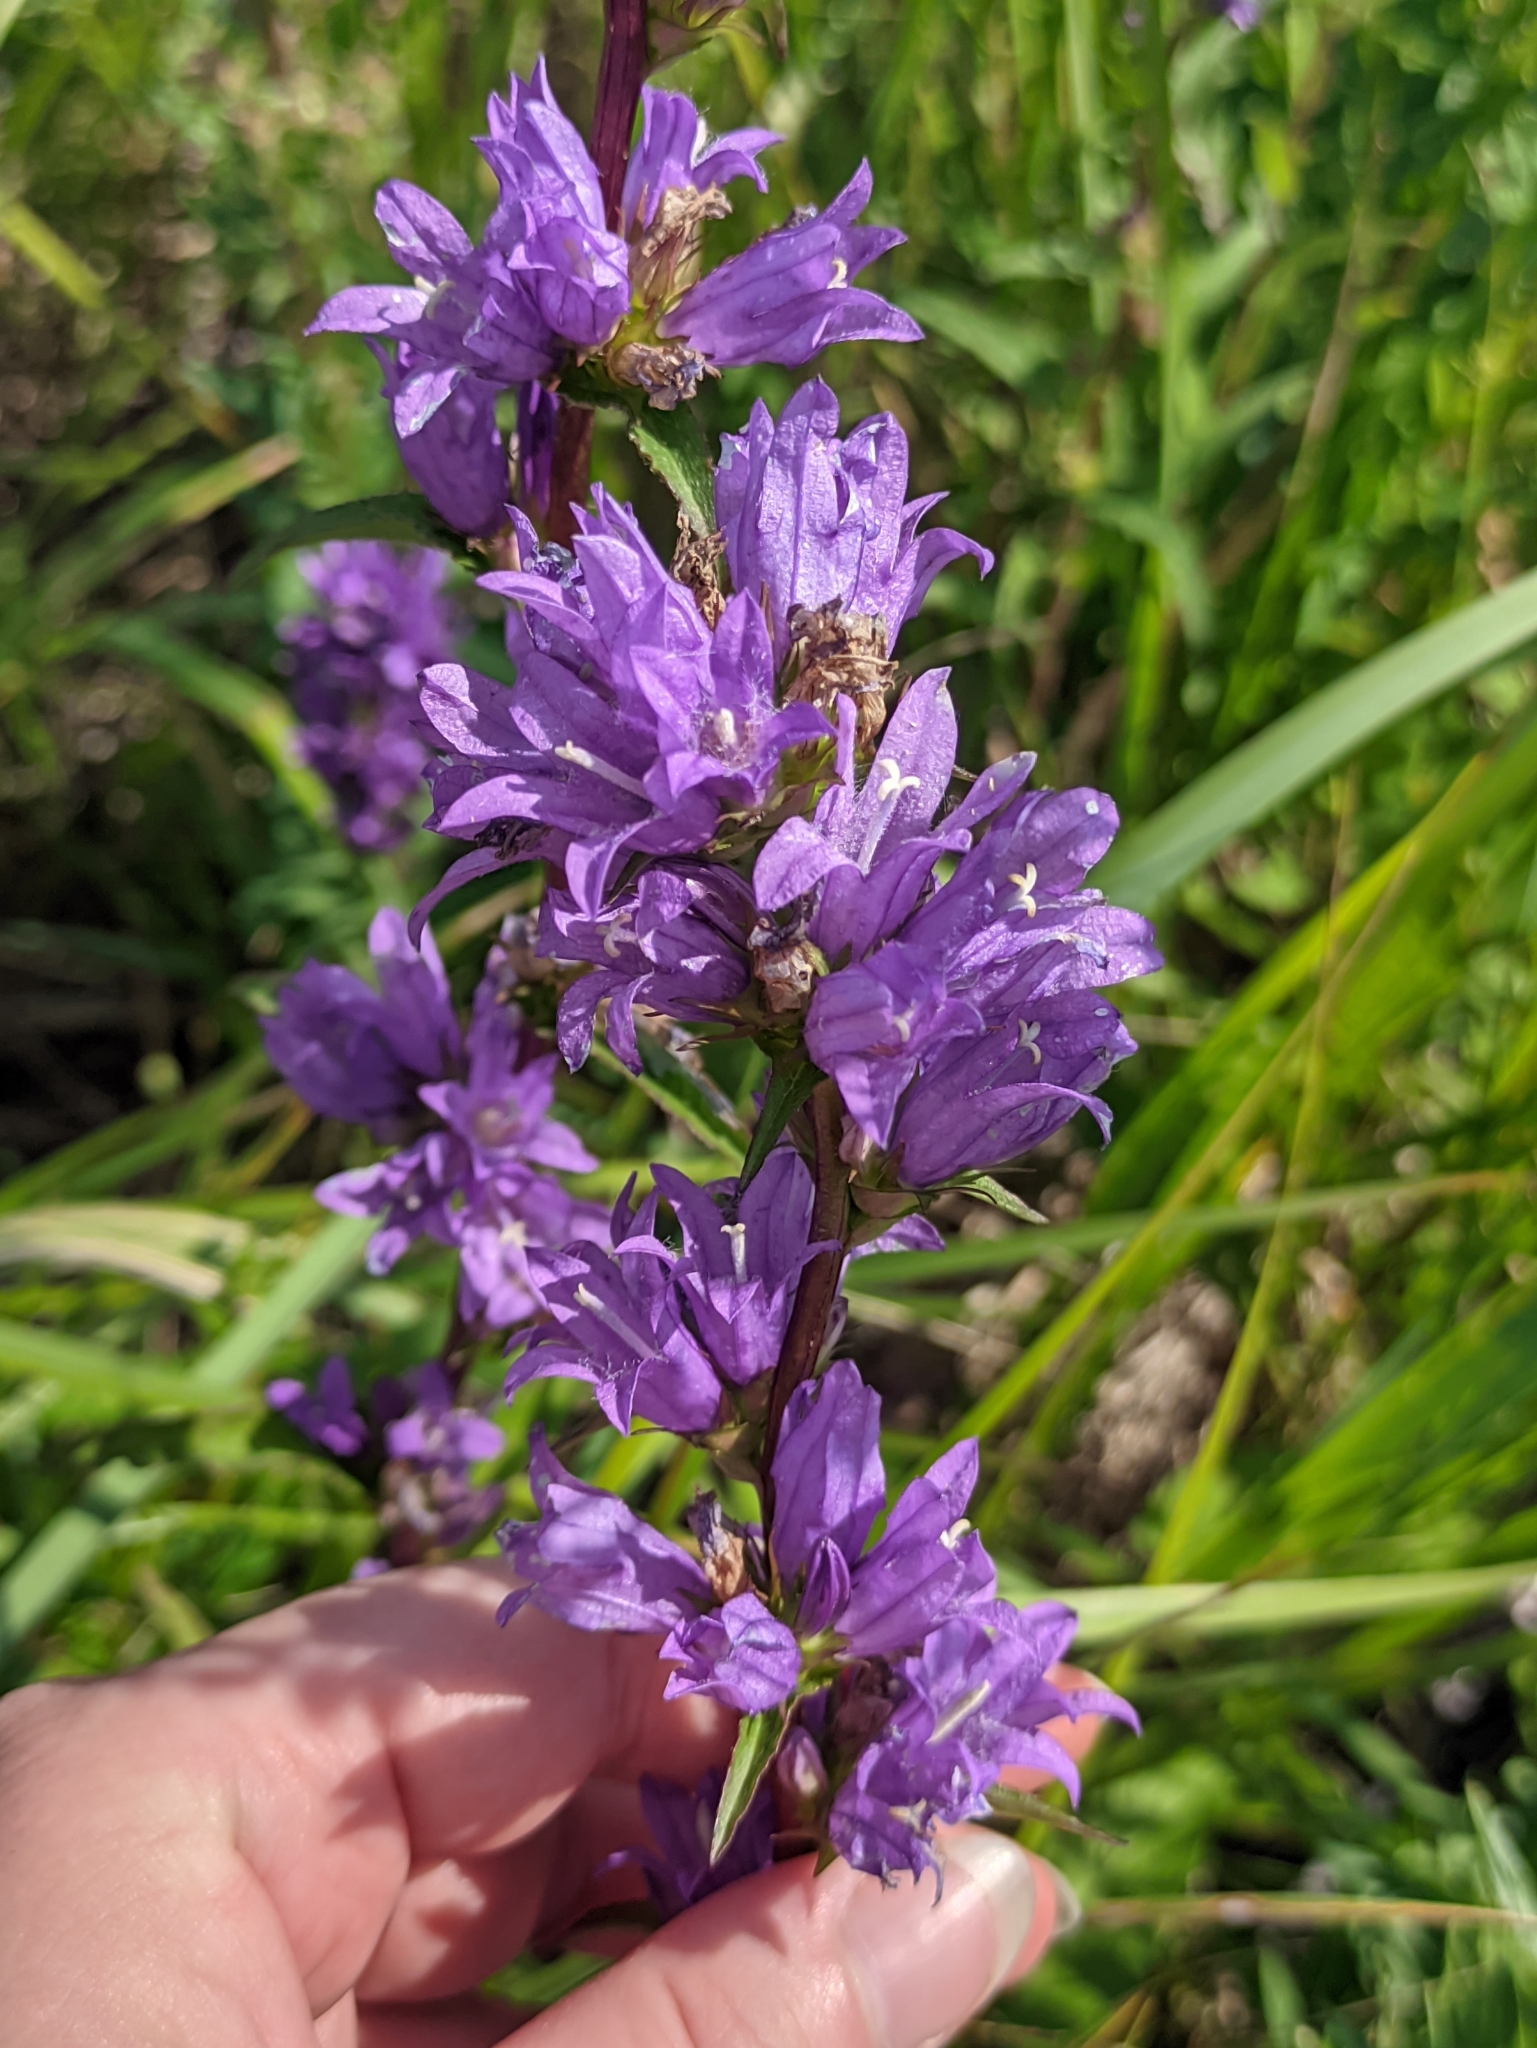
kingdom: Plantae
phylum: Tracheophyta
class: Magnoliopsida
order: Asterales
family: Campanulaceae
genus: Campanula
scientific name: Campanula glomerata
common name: Clustered bellflower
